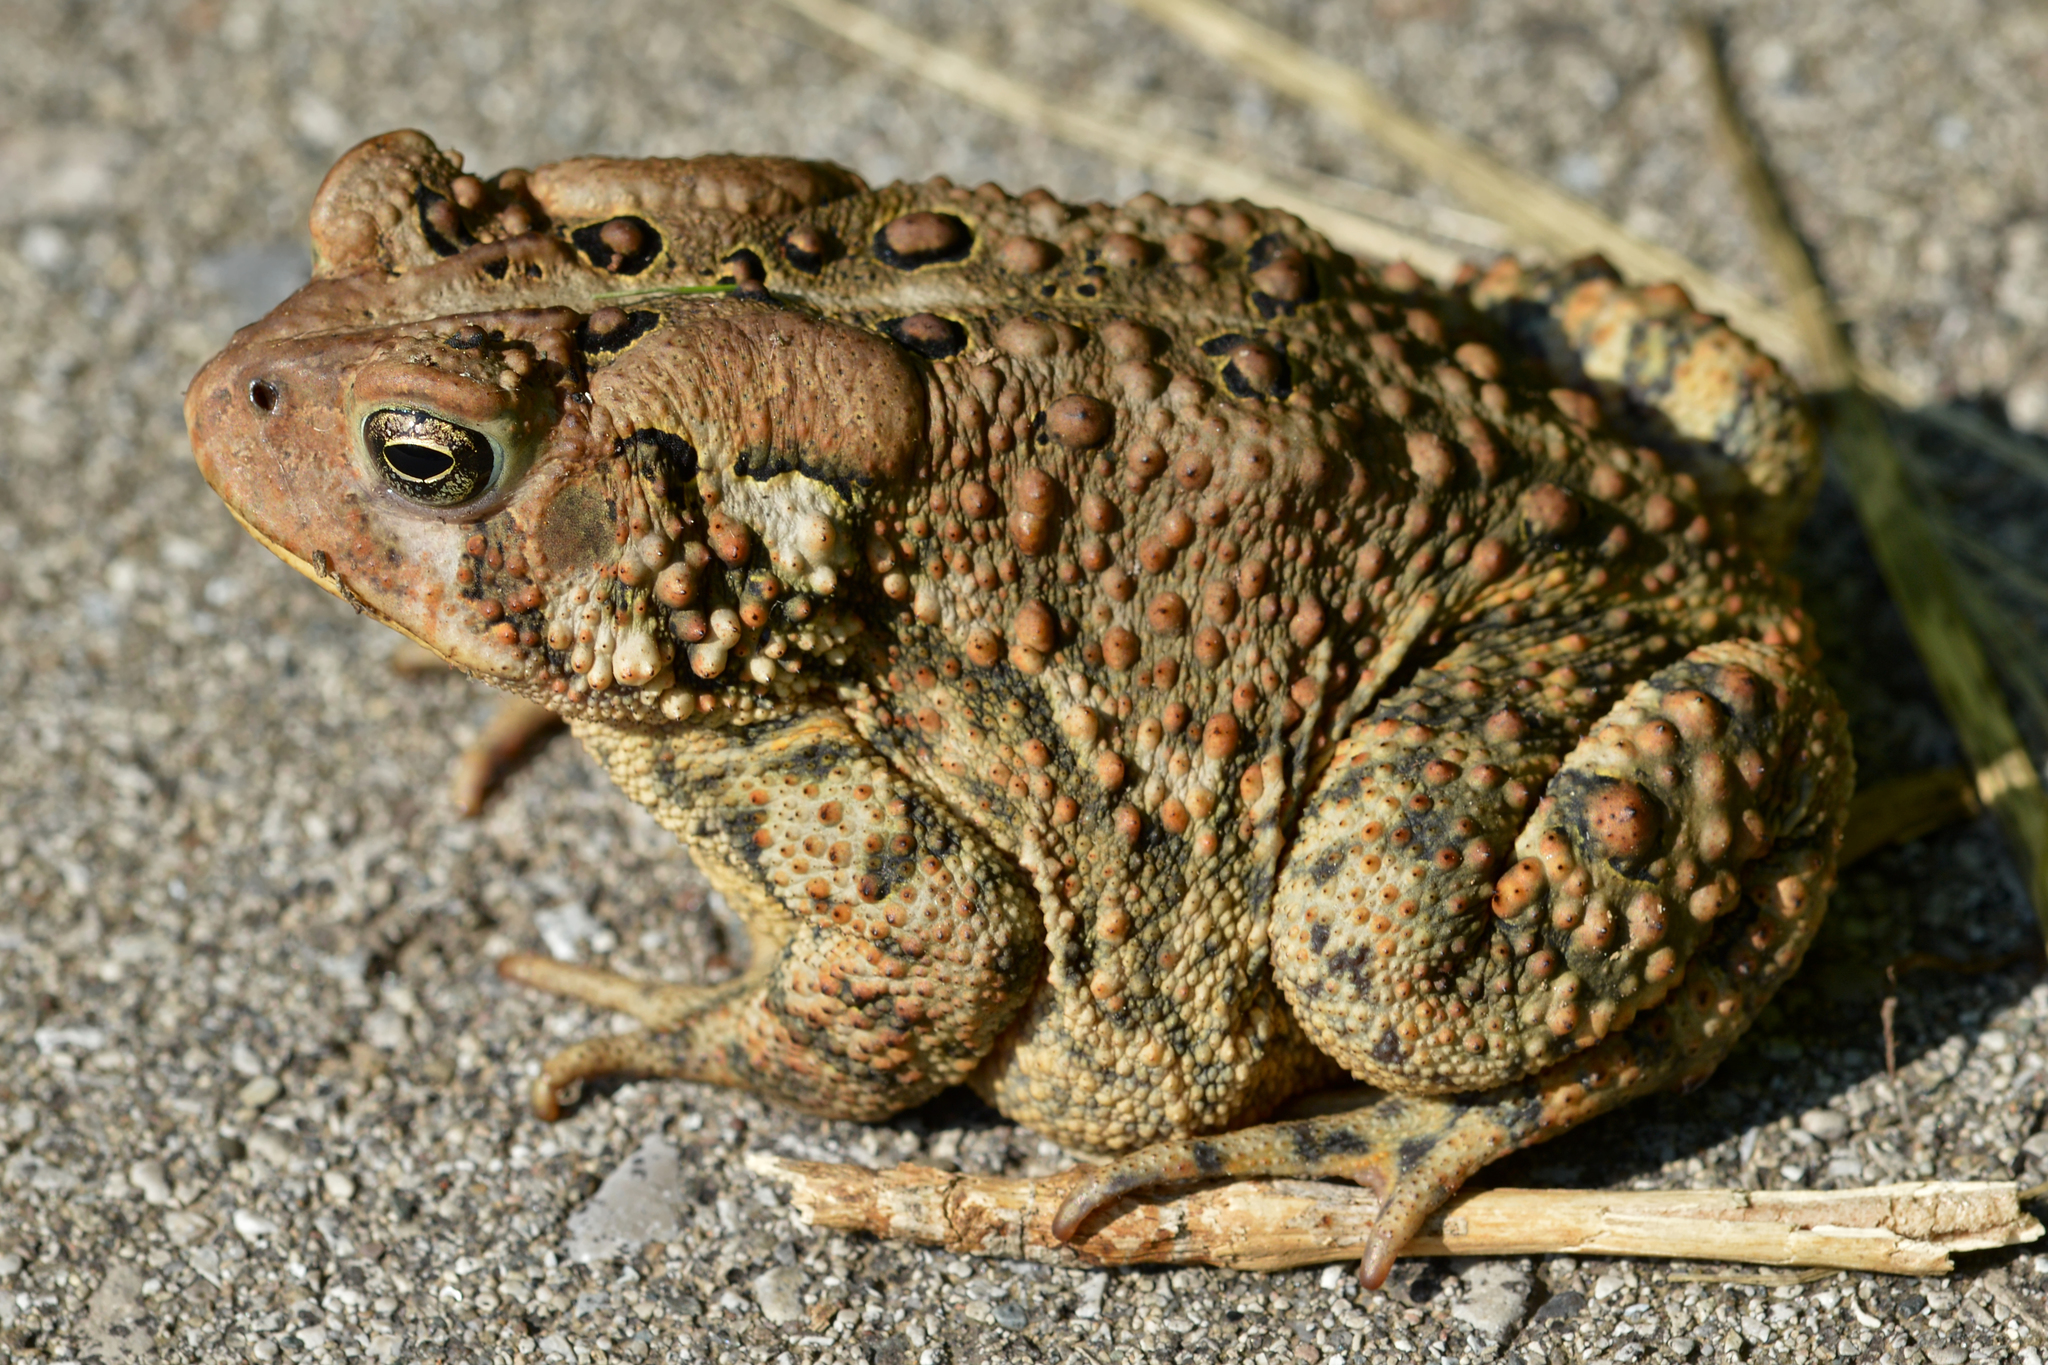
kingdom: Animalia
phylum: Chordata
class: Amphibia
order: Anura
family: Bufonidae
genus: Anaxyrus
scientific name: Anaxyrus americanus
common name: American toad
